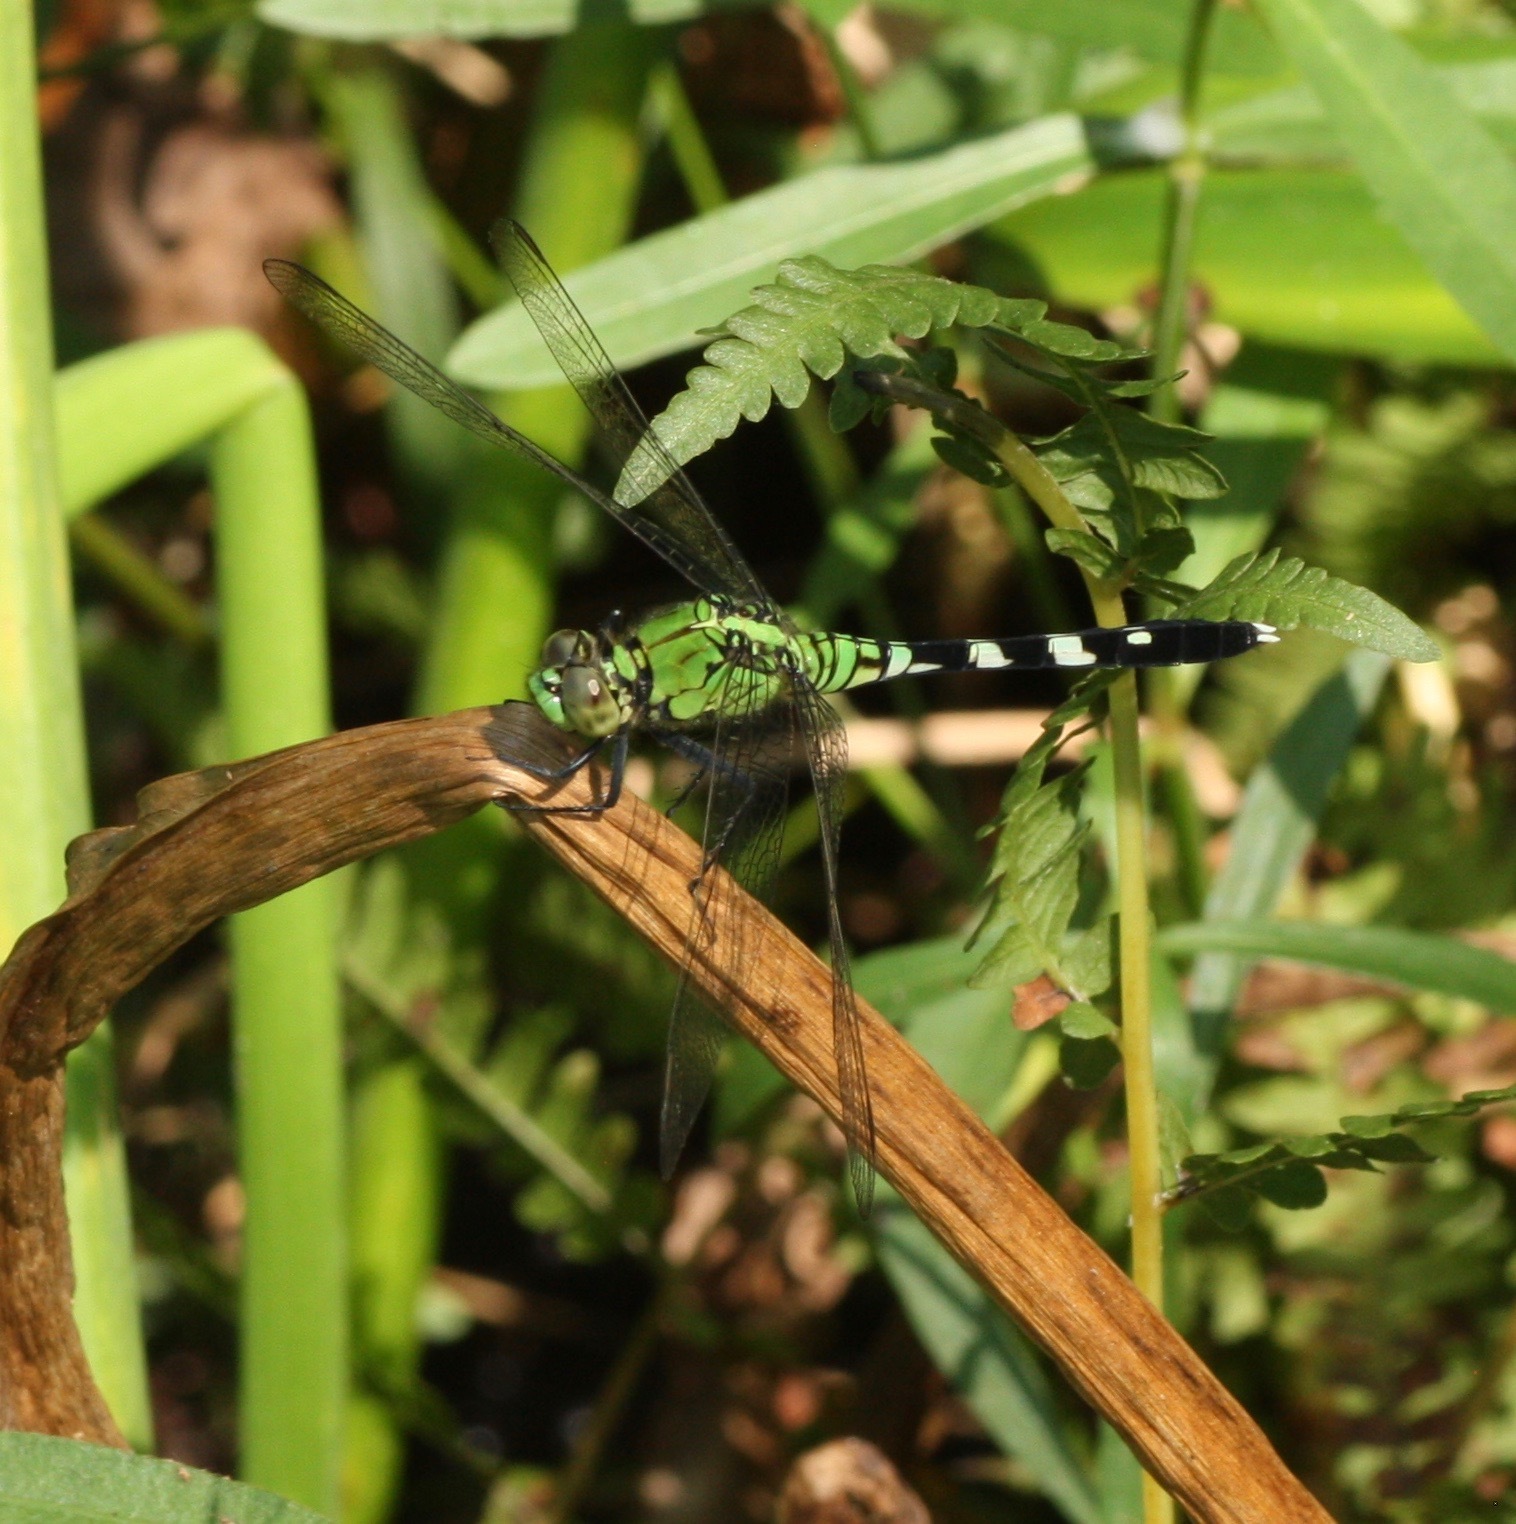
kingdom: Animalia
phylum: Arthropoda
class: Insecta
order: Odonata
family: Libellulidae
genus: Erythemis
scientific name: Erythemis simplicicollis
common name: Eastern pondhawk
